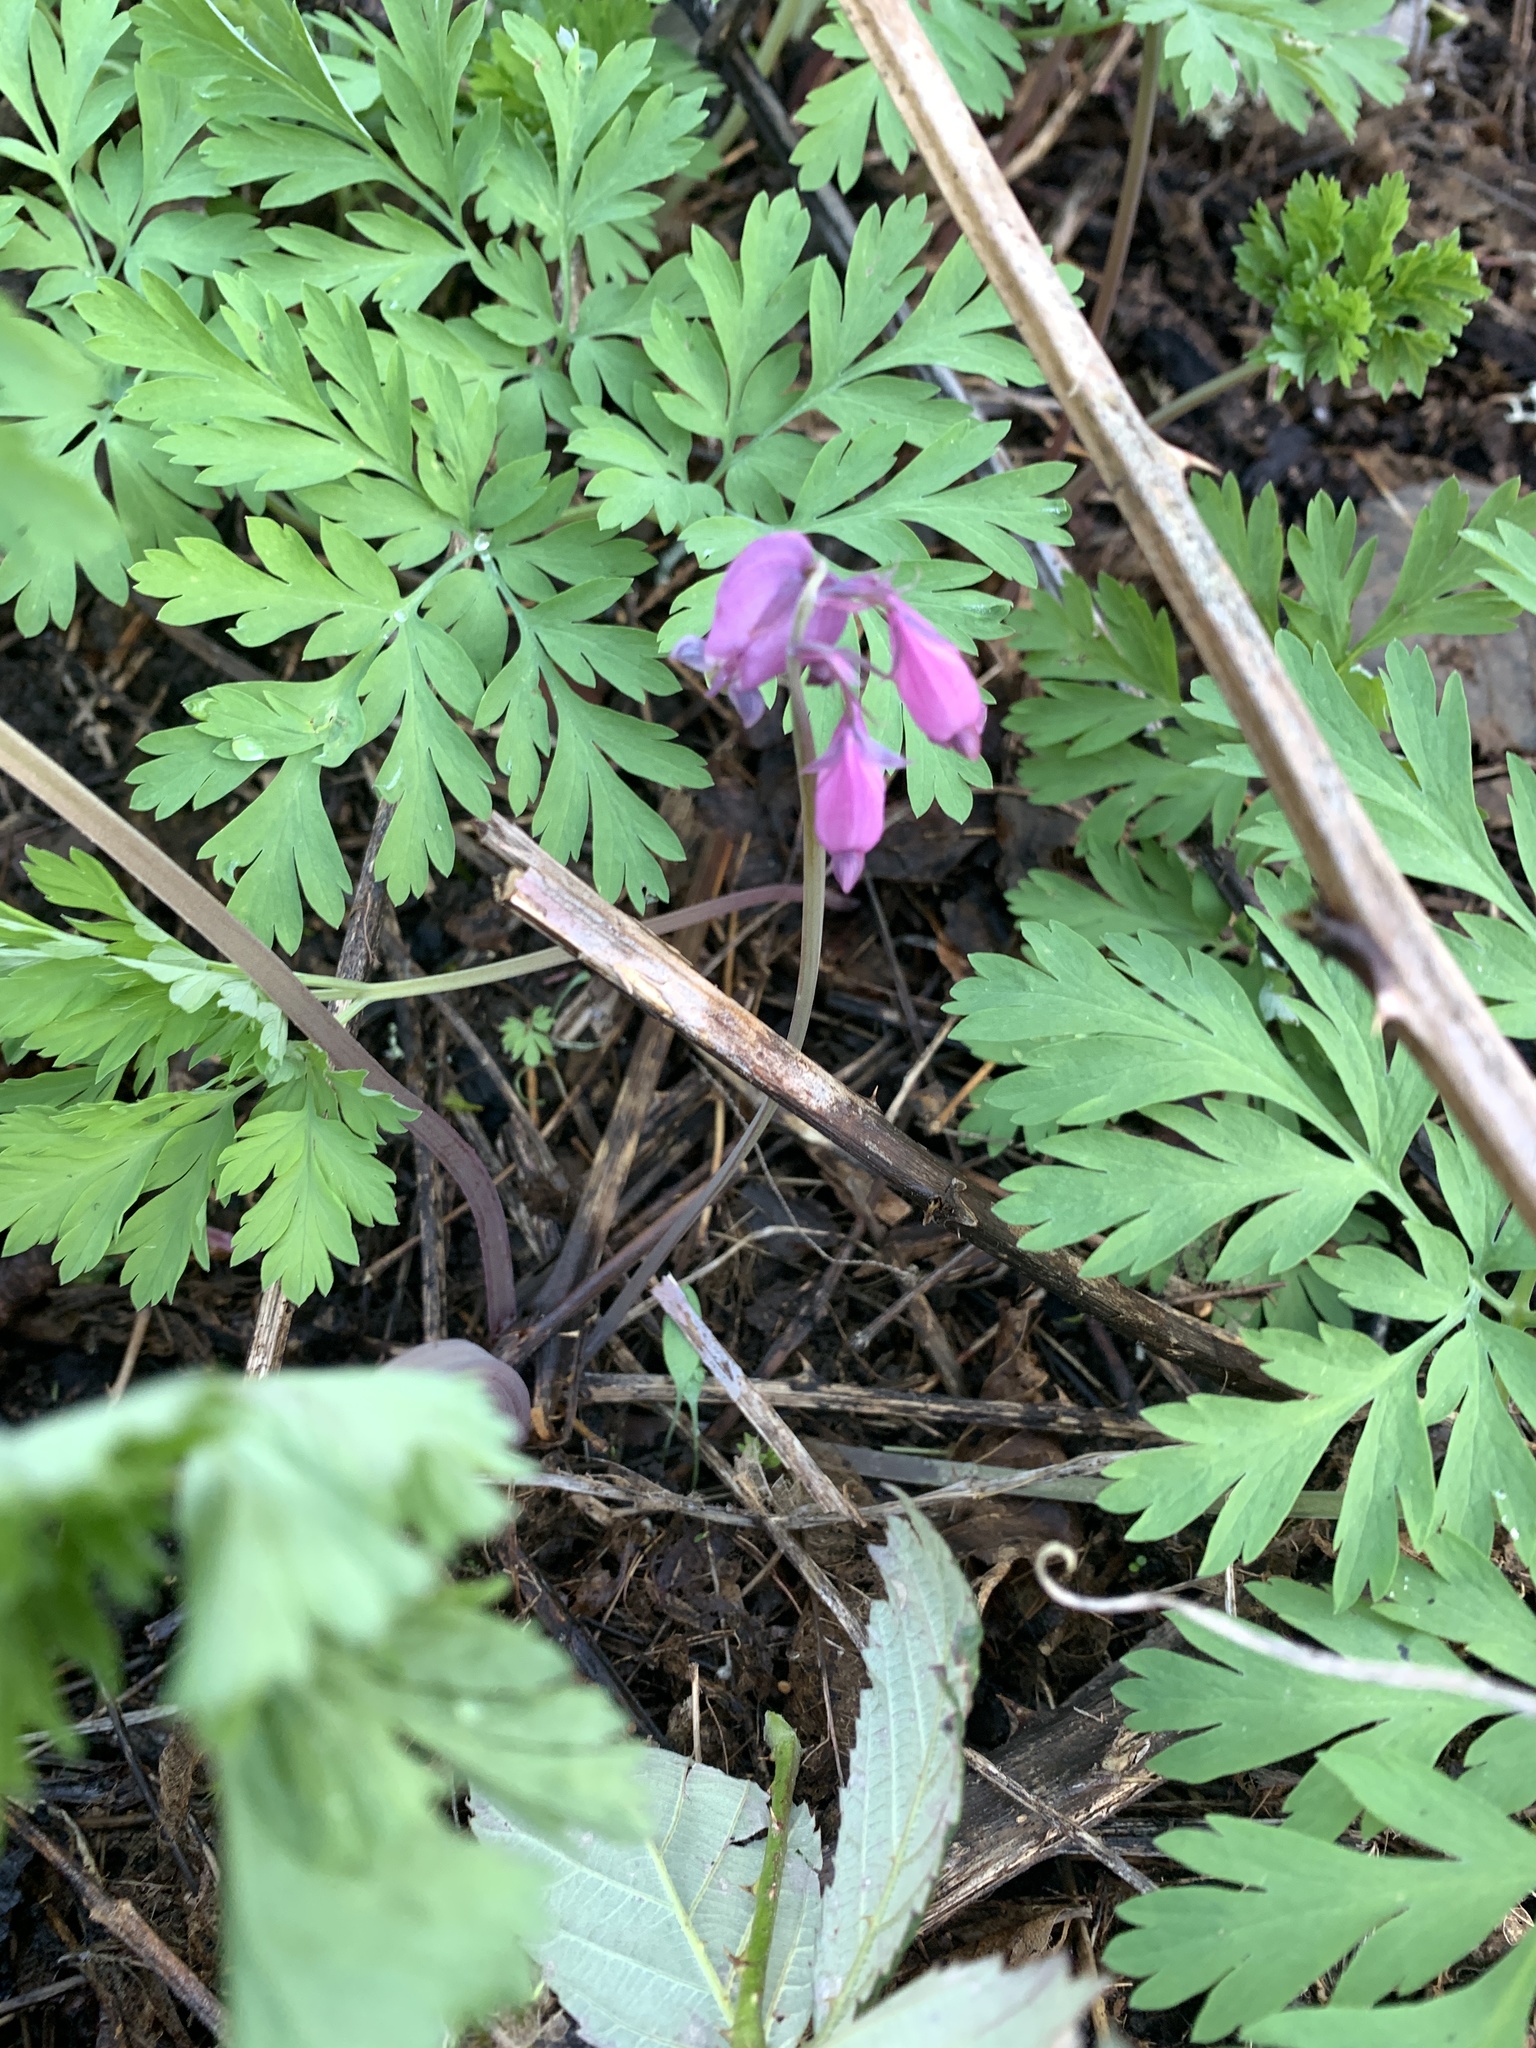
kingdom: Plantae
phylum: Tracheophyta
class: Magnoliopsida
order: Ranunculales
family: Papaveraceae
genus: Dicentra
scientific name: Dicentra formosa
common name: Bleeding-heart
